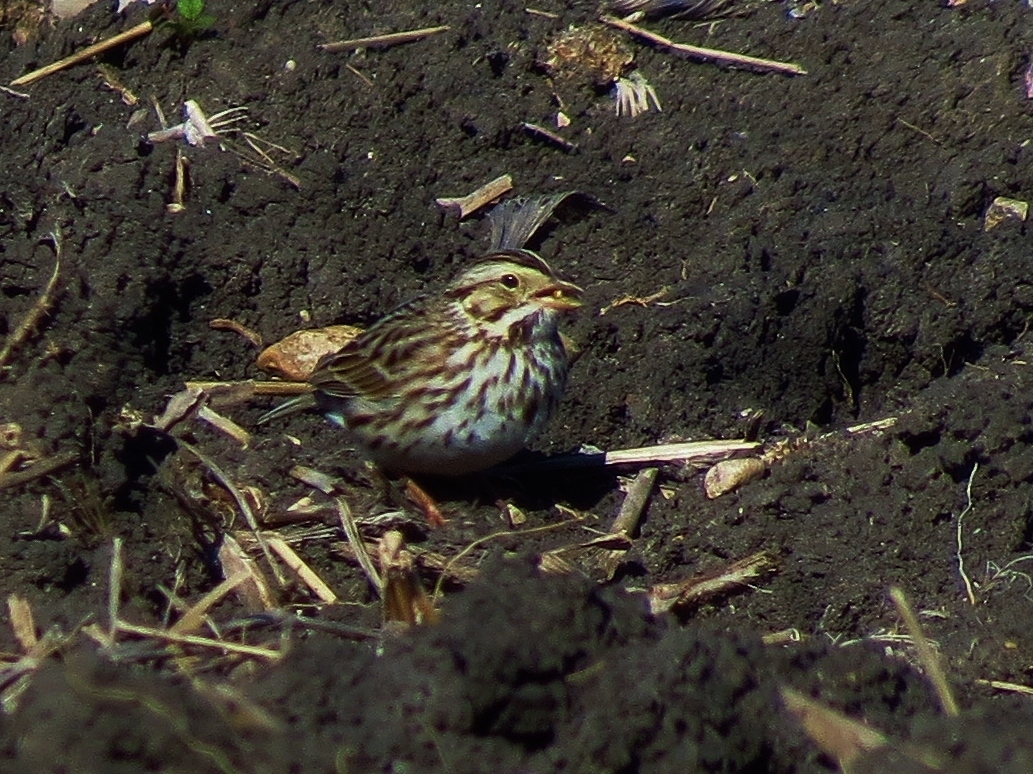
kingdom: Animalia
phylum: Chordata
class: Aves
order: Passeriformes
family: Passerellidae
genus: Passerculus
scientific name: Passerculus sandwichensis
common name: Savannah sparrow
